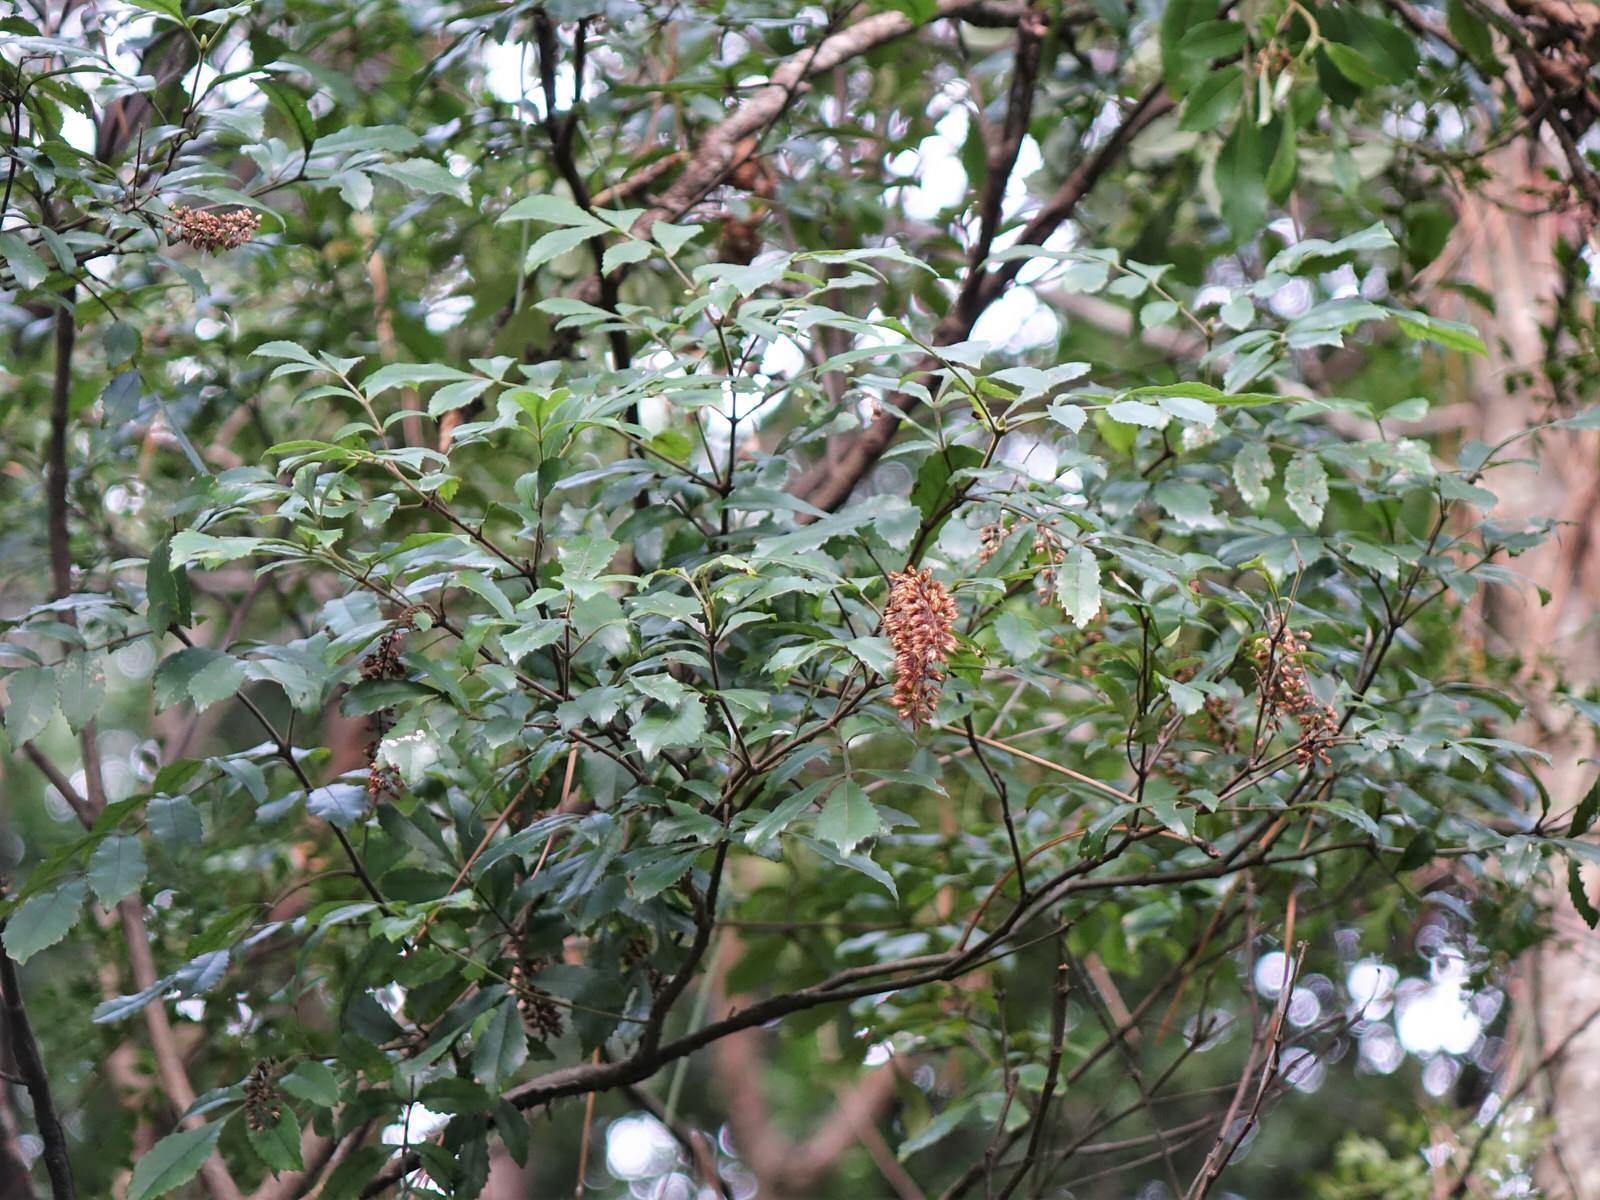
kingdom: Plantae
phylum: Tracheophyta
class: Magnoliopsida
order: Oxalidales
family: Cunoniaceae
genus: Pterophylla
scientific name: Pterophylla sylvicola
